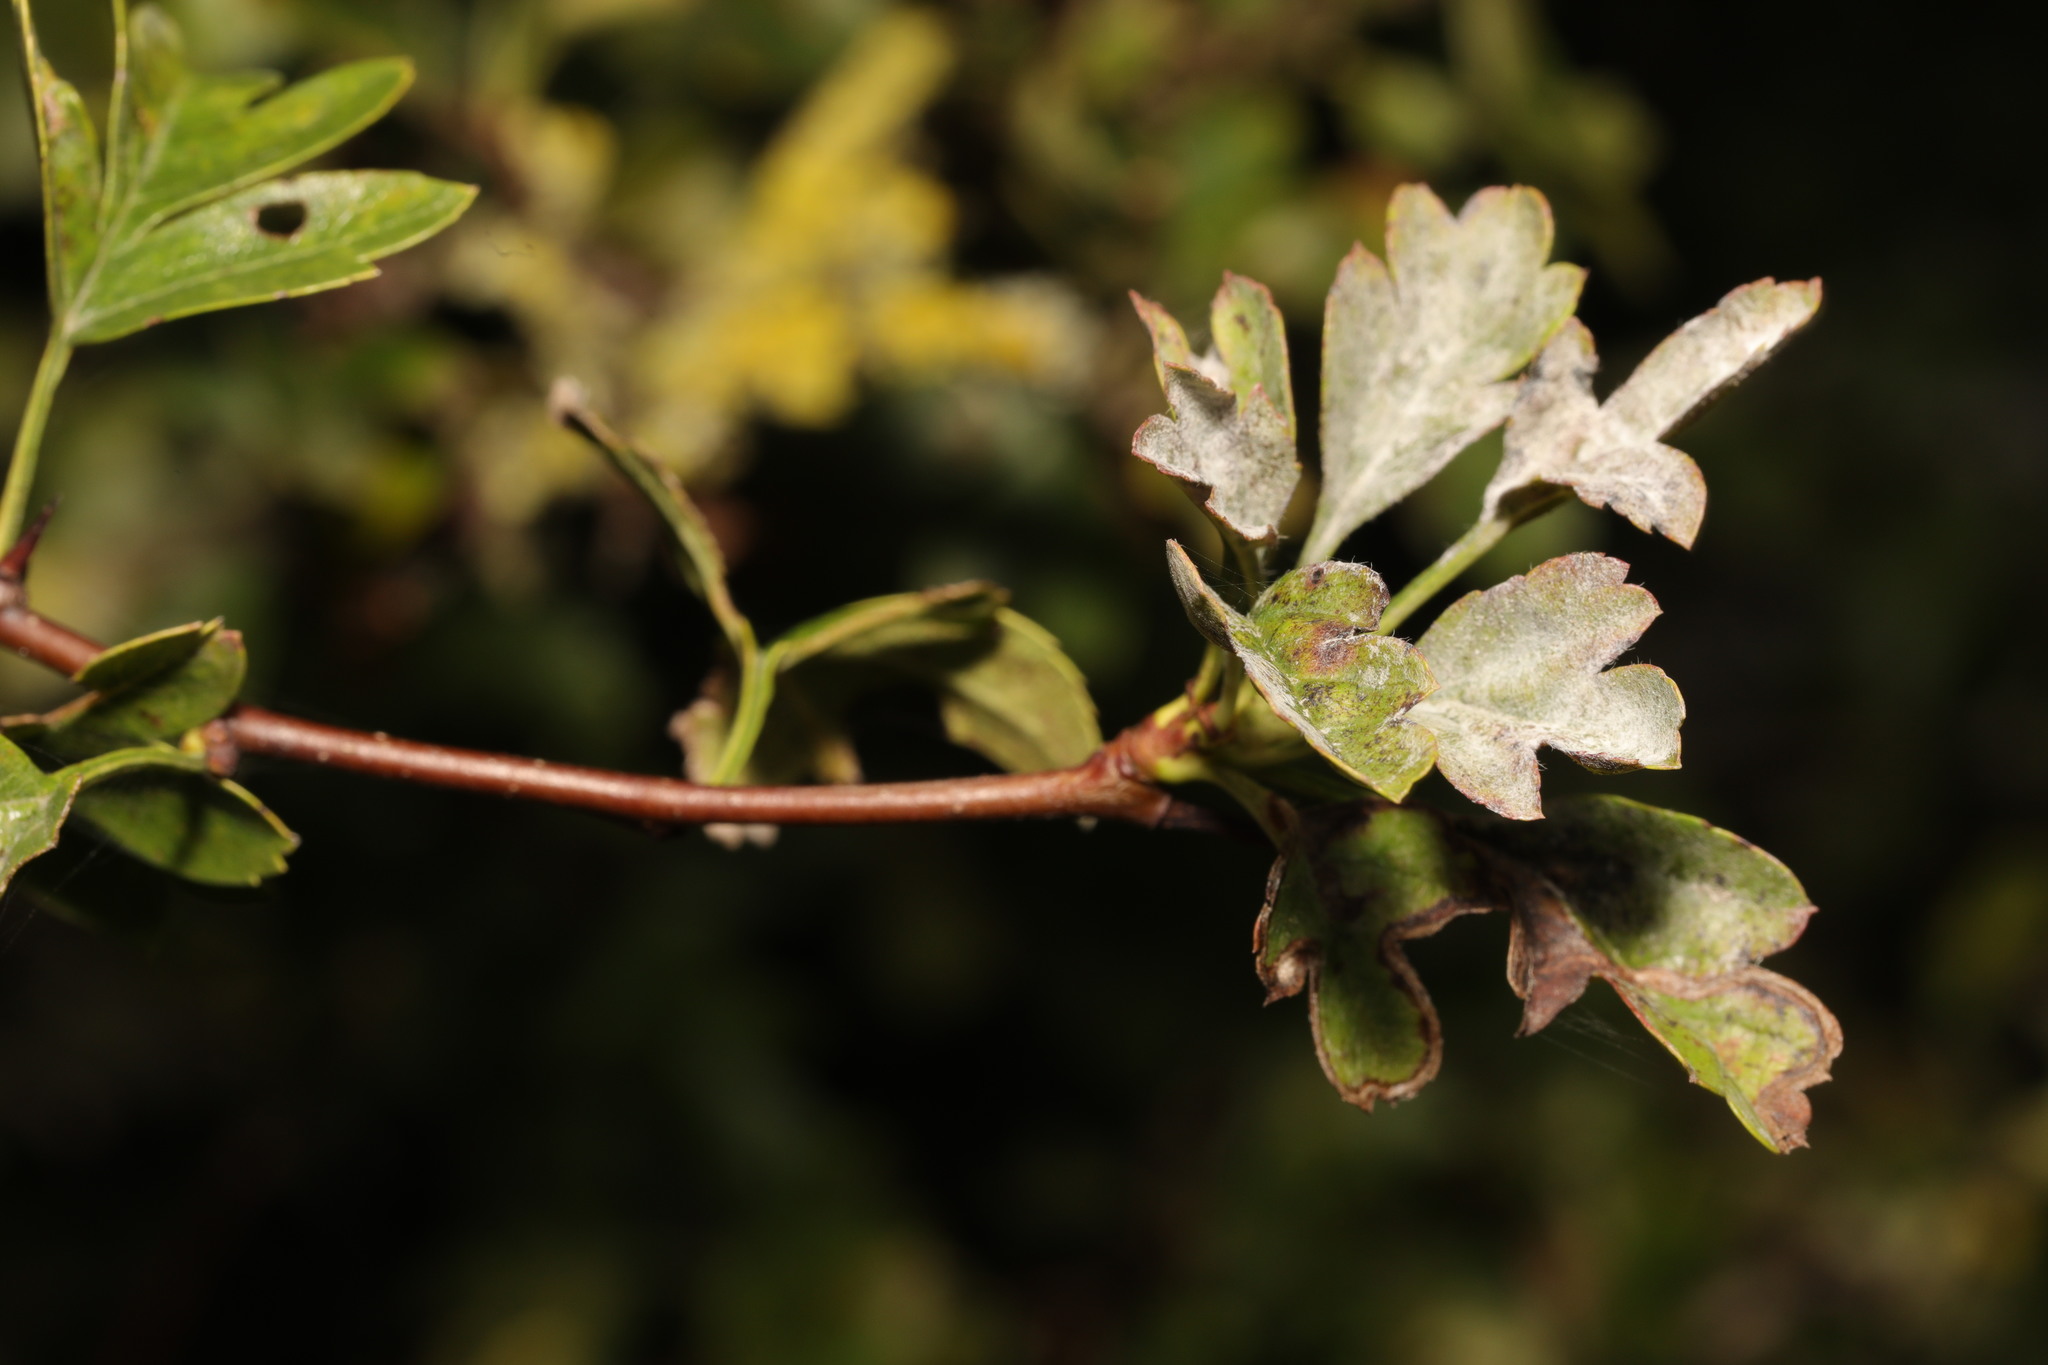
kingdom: Fungi
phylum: Ascomycota
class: Leotiomycetes
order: Helotiales
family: Erysiphaceae
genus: Podosphaera
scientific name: Podosphaera clandestina
